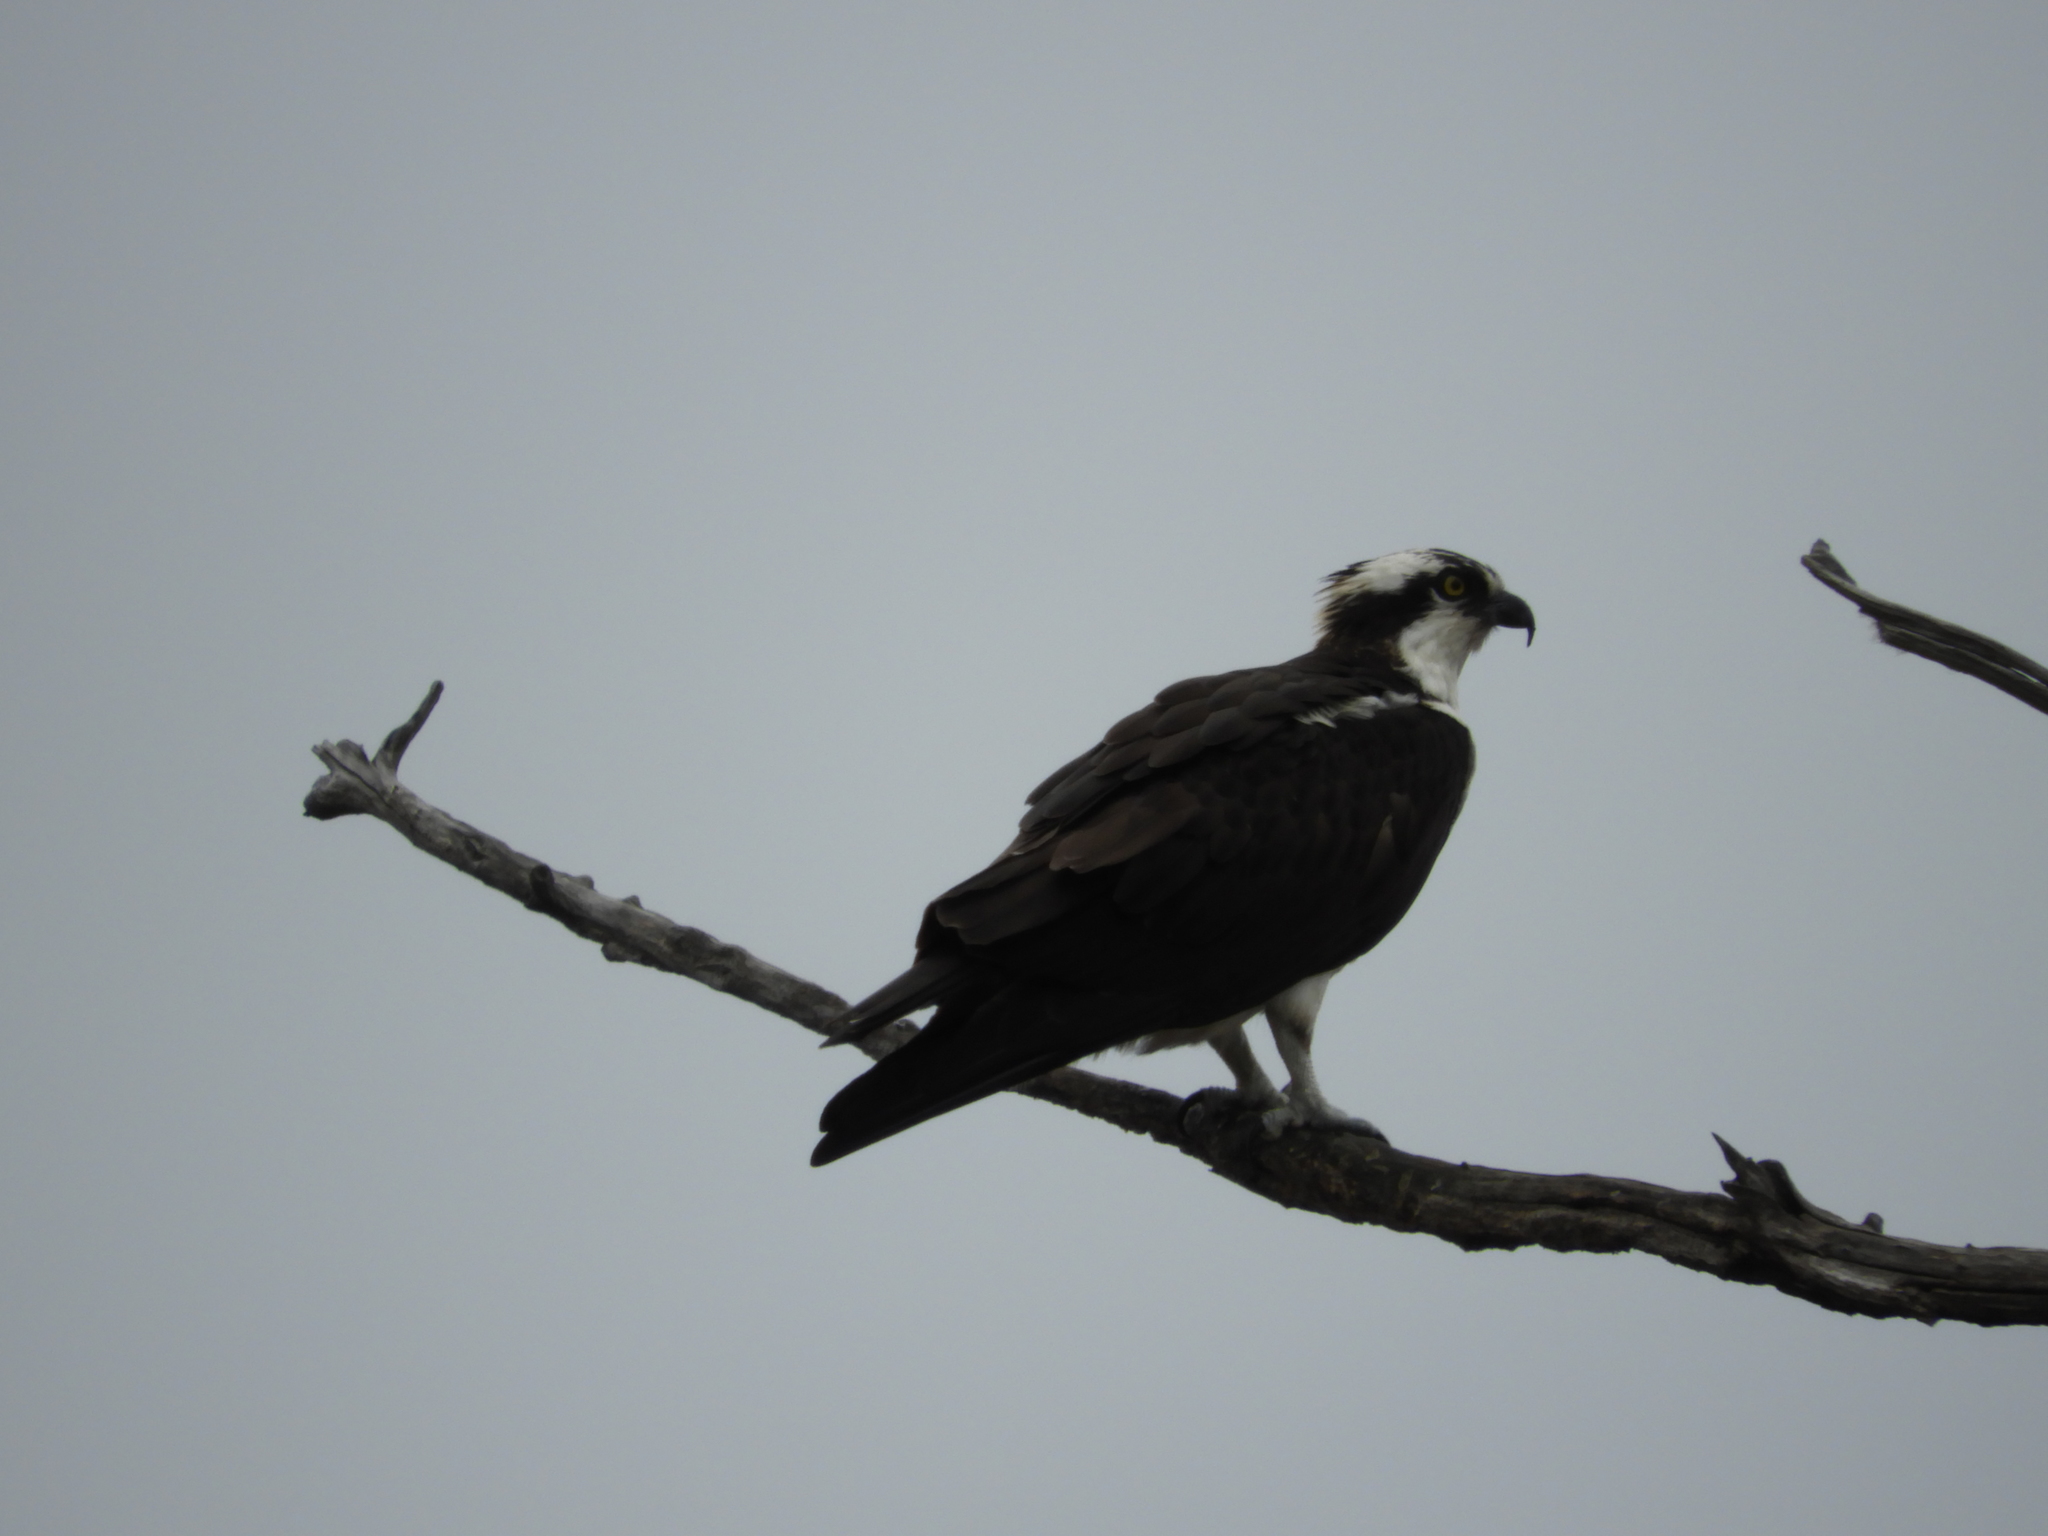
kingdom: Animalia
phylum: Chordata
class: Aves
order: Accipitriformes
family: Pandionidae
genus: Pandion
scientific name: Pandion haliaetus
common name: Osprey
